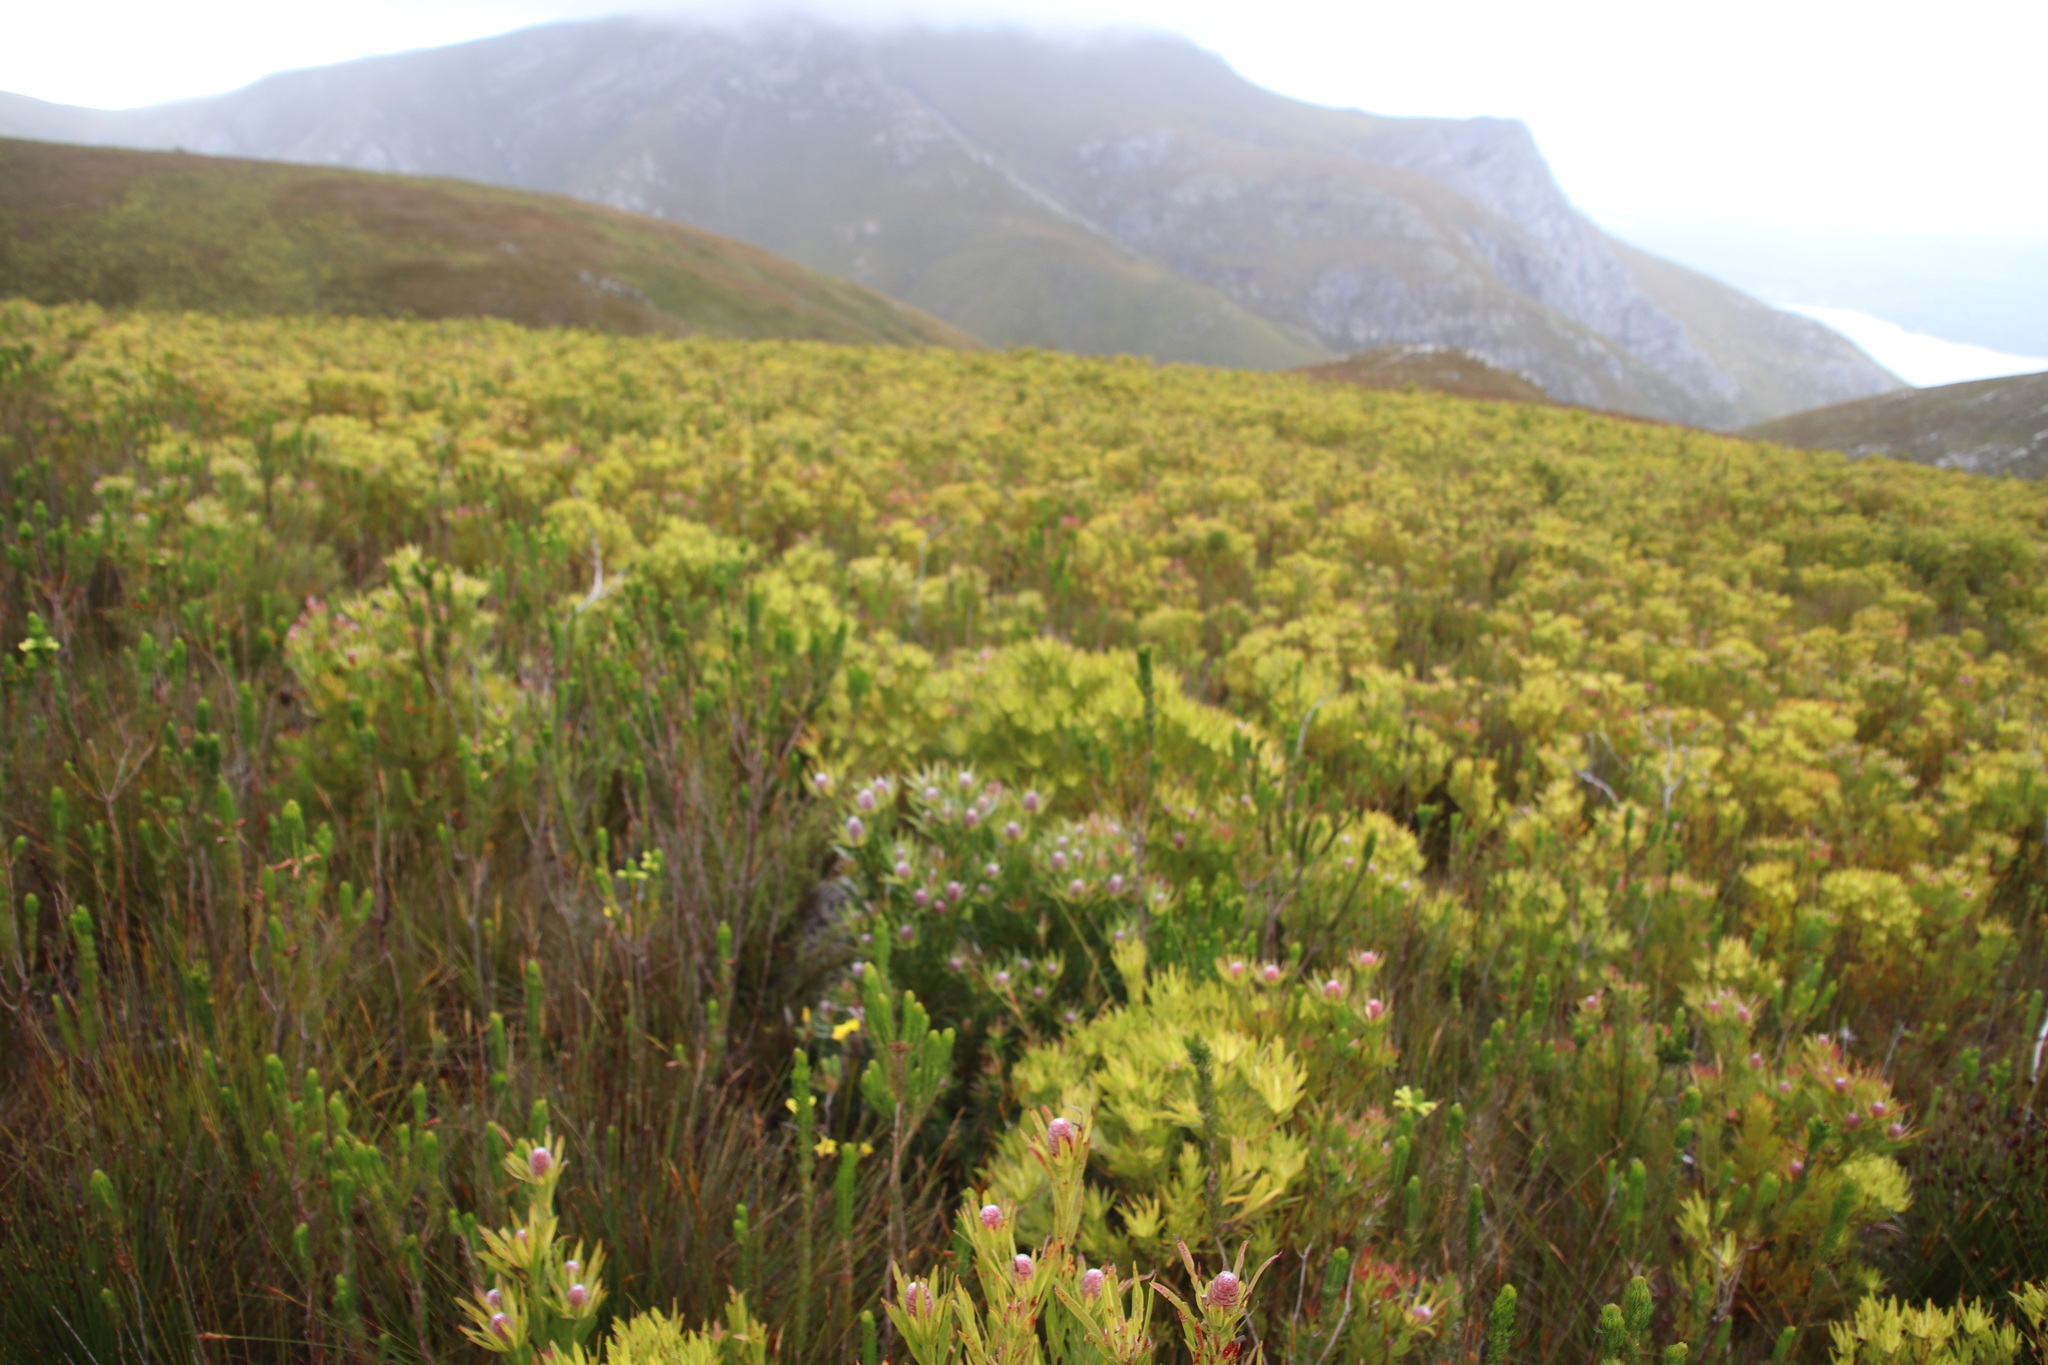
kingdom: Plantae
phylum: Tracheophyta
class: Magnoliopsida
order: Proteales
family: Proteaceae
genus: Leucadendron
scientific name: Leucadendron xanthoconus
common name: Sickle-leaf conebush
